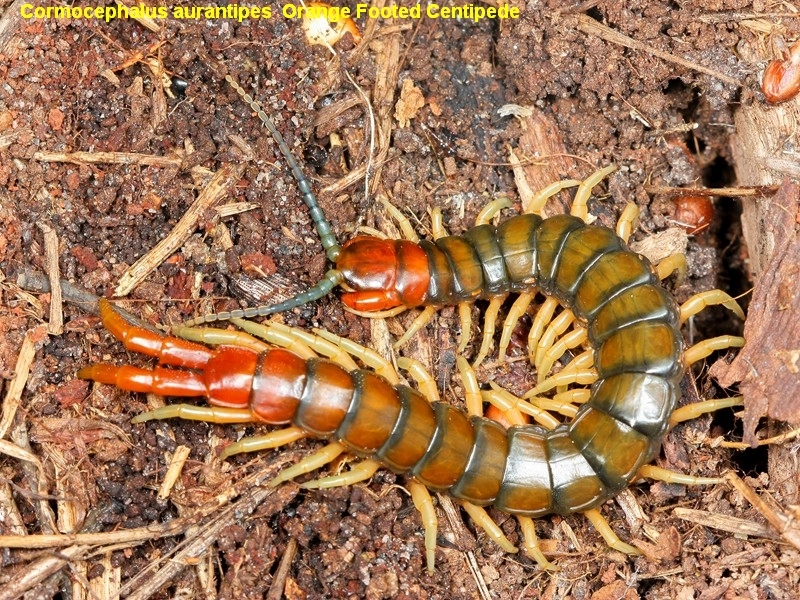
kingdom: Animalia
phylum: Arthropoda
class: Chilopoda
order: Scolopendromorpha
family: Scolopendridae
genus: Cormocephalus
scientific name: Cormocephalus aurantiipes
